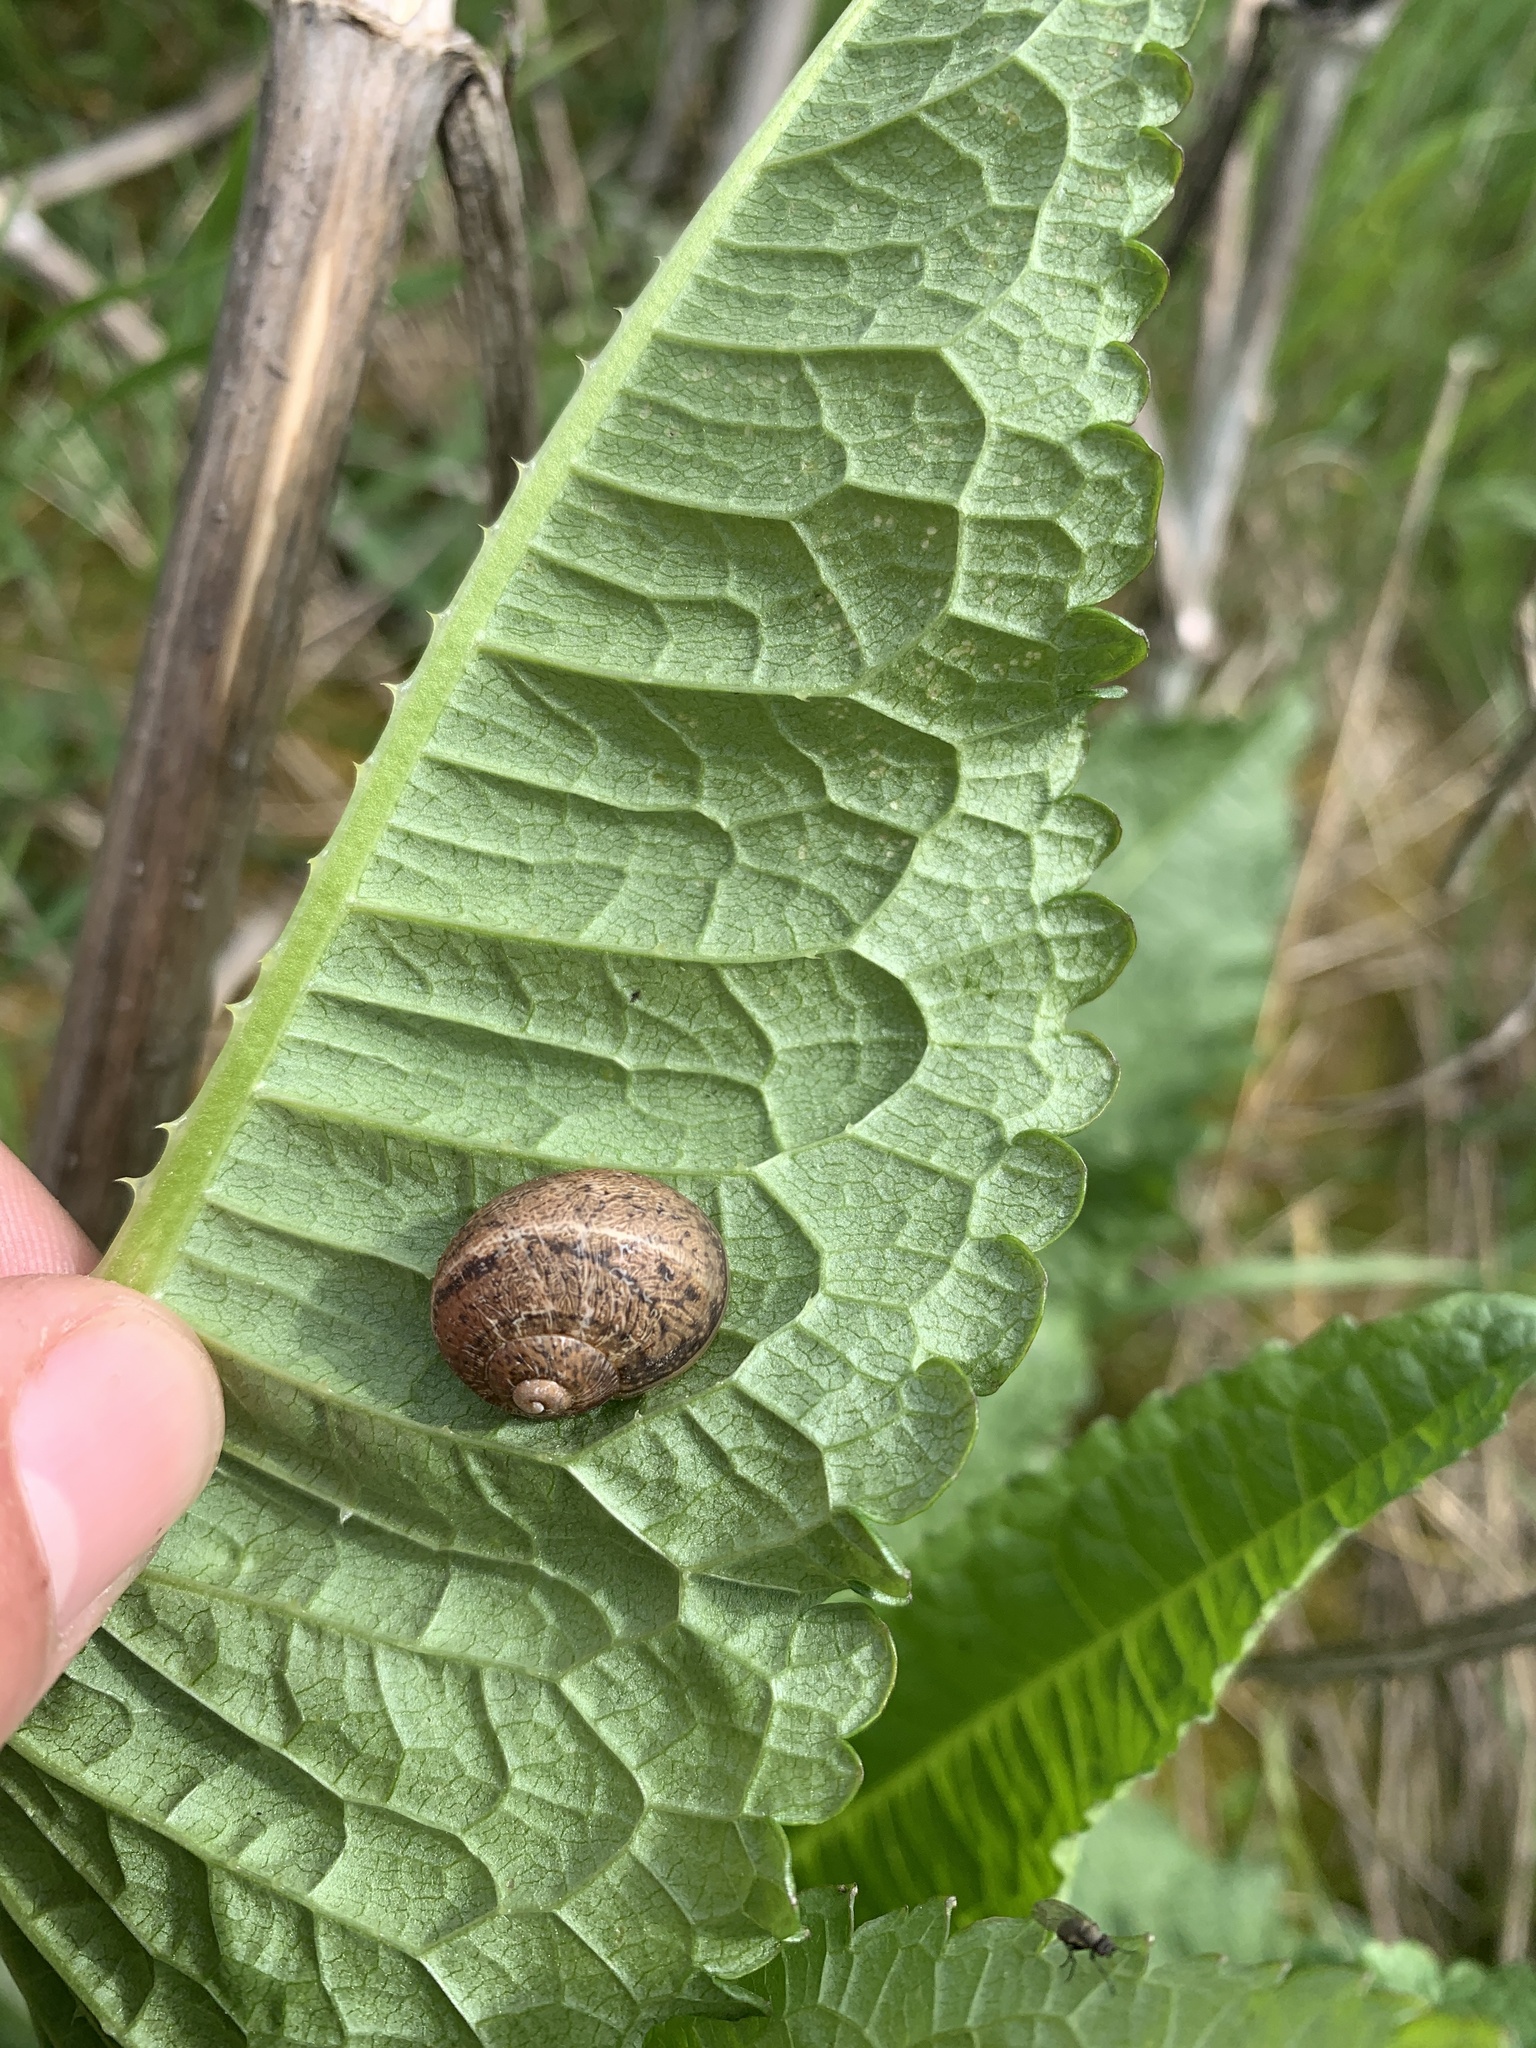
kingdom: Animalia
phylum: Mollusca
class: Gastropoda
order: Stylommatophora
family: Helicidae
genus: Cornu
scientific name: Cornu aspersum
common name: Brown garden snail
